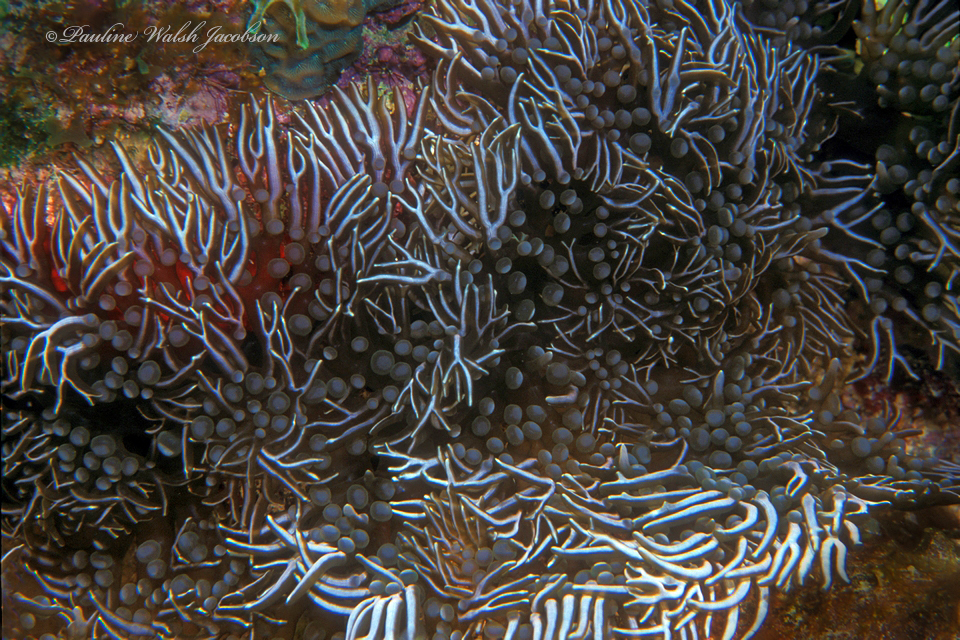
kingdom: Animalia
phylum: Cnidaria
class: Anthozoa
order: Actiniaria
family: Aliciidae
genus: Lebrunia
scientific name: Lebrunia neglecta
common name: Branching anemone
